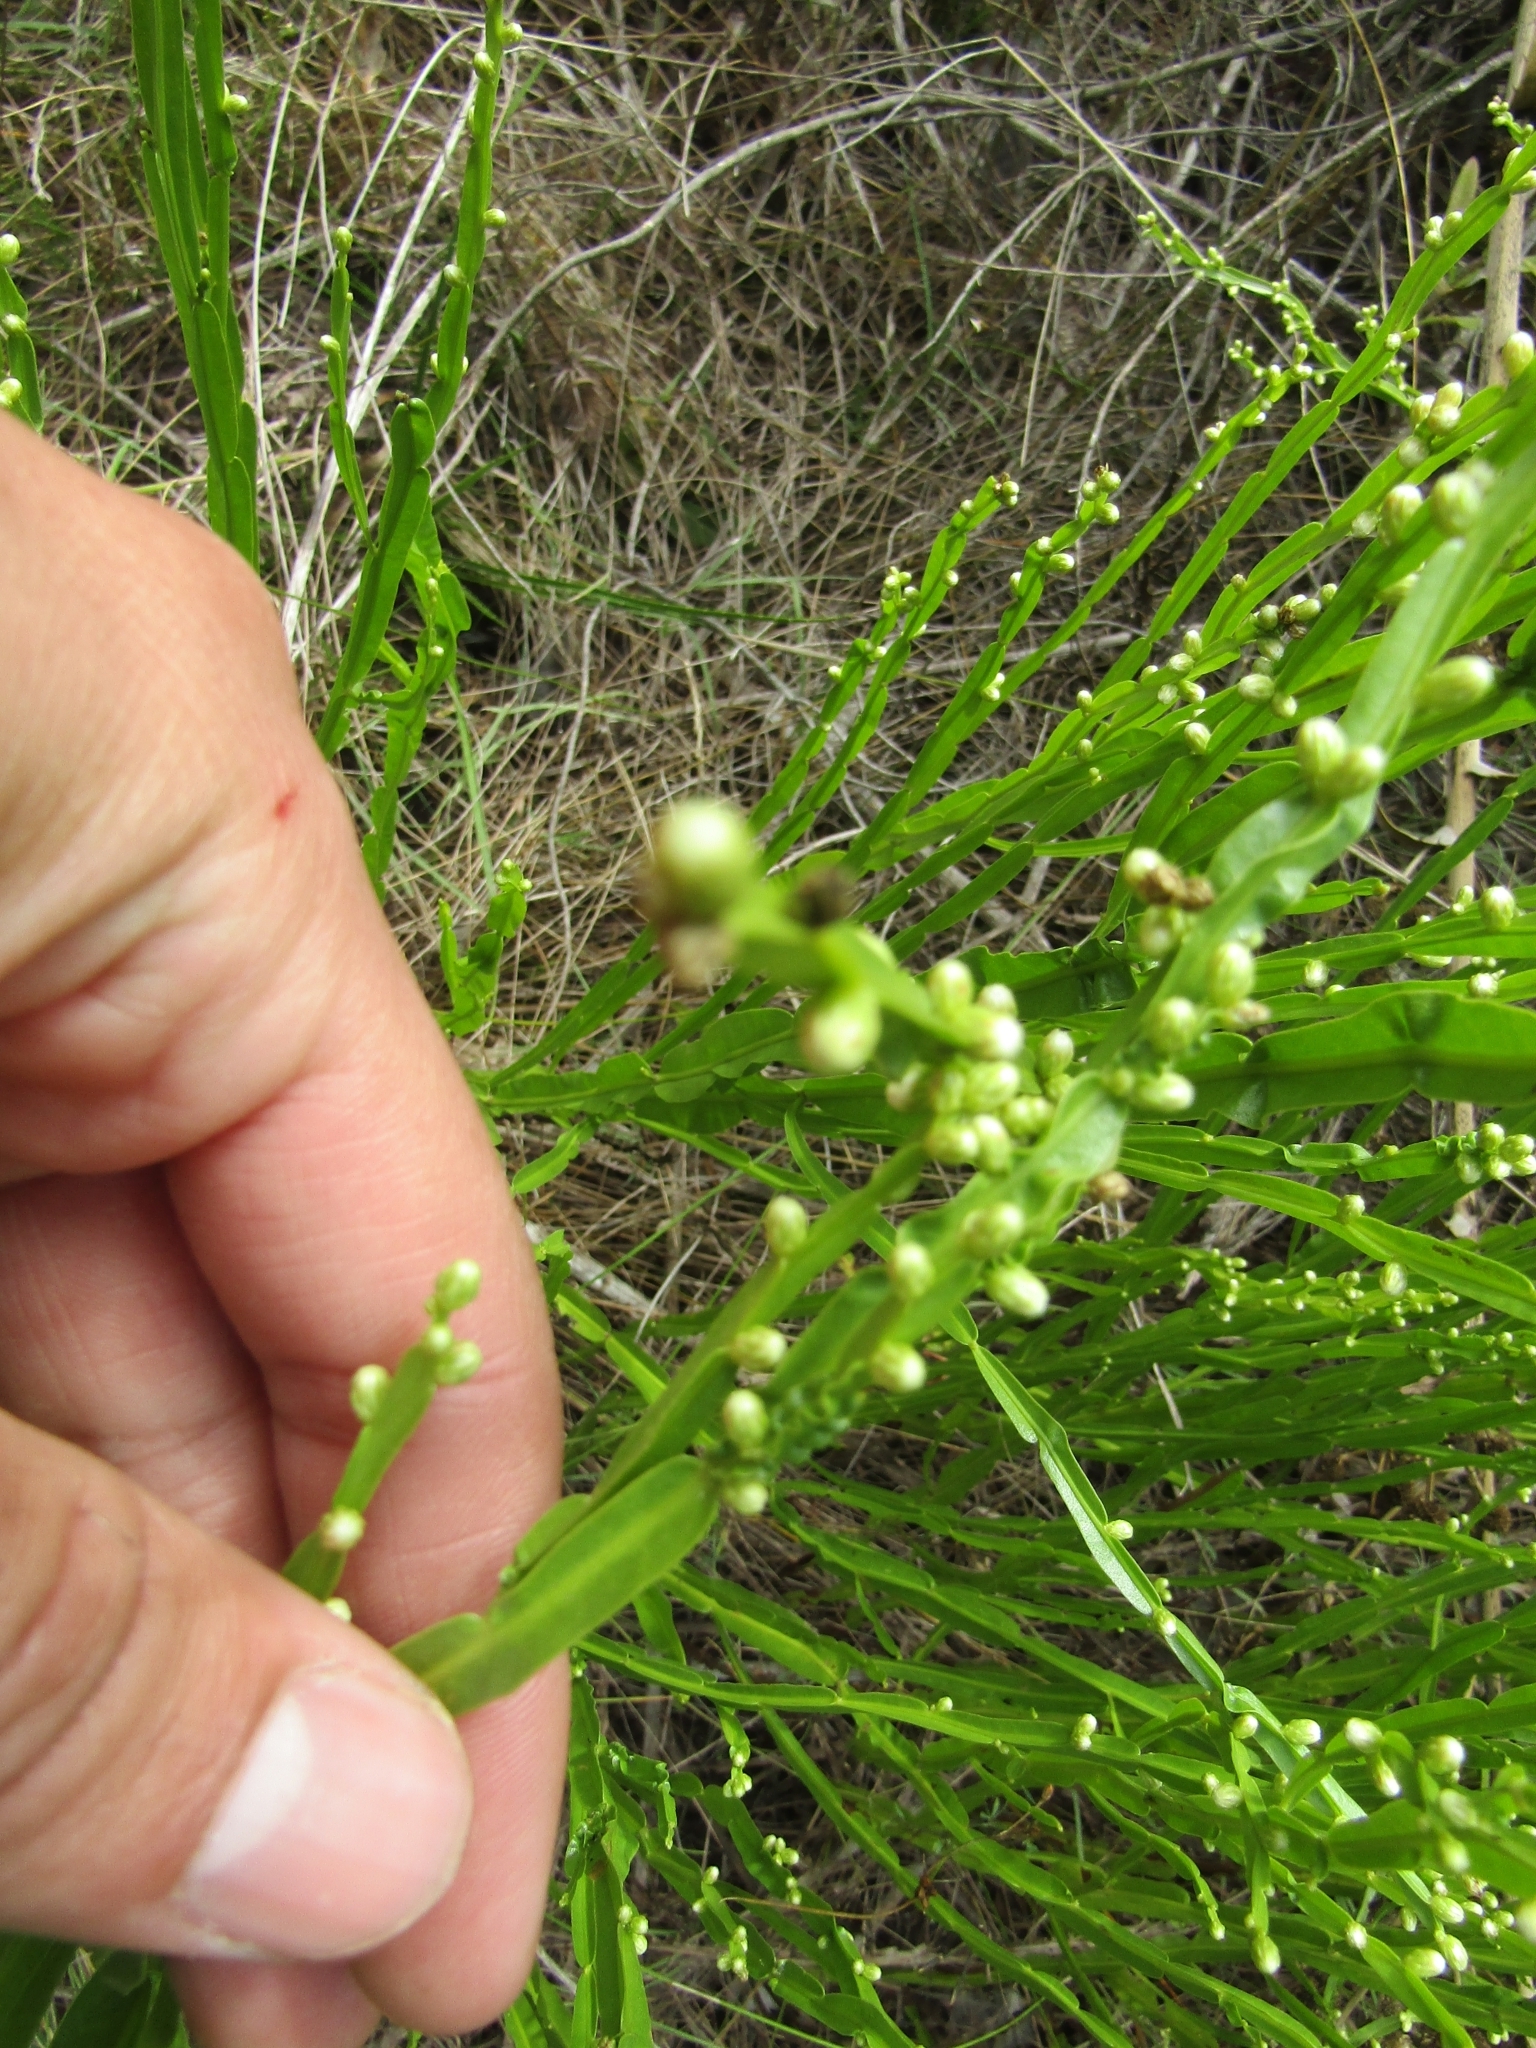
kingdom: Plantae
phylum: Tracheophyta
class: Magnoliopsida
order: Asterales
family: Asteraceae
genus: Baccharis
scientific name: Baccharis trimera
